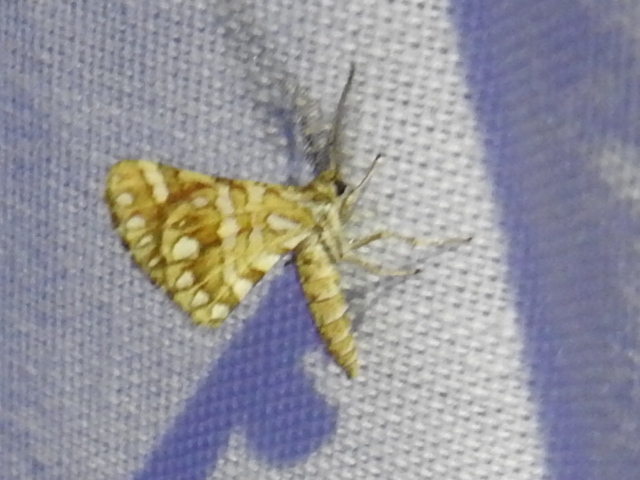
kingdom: Animalia
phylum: Arthropoda
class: Insecta
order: Lepidoptera
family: Geometridae
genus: Narraga
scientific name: Narraga fimetaria
